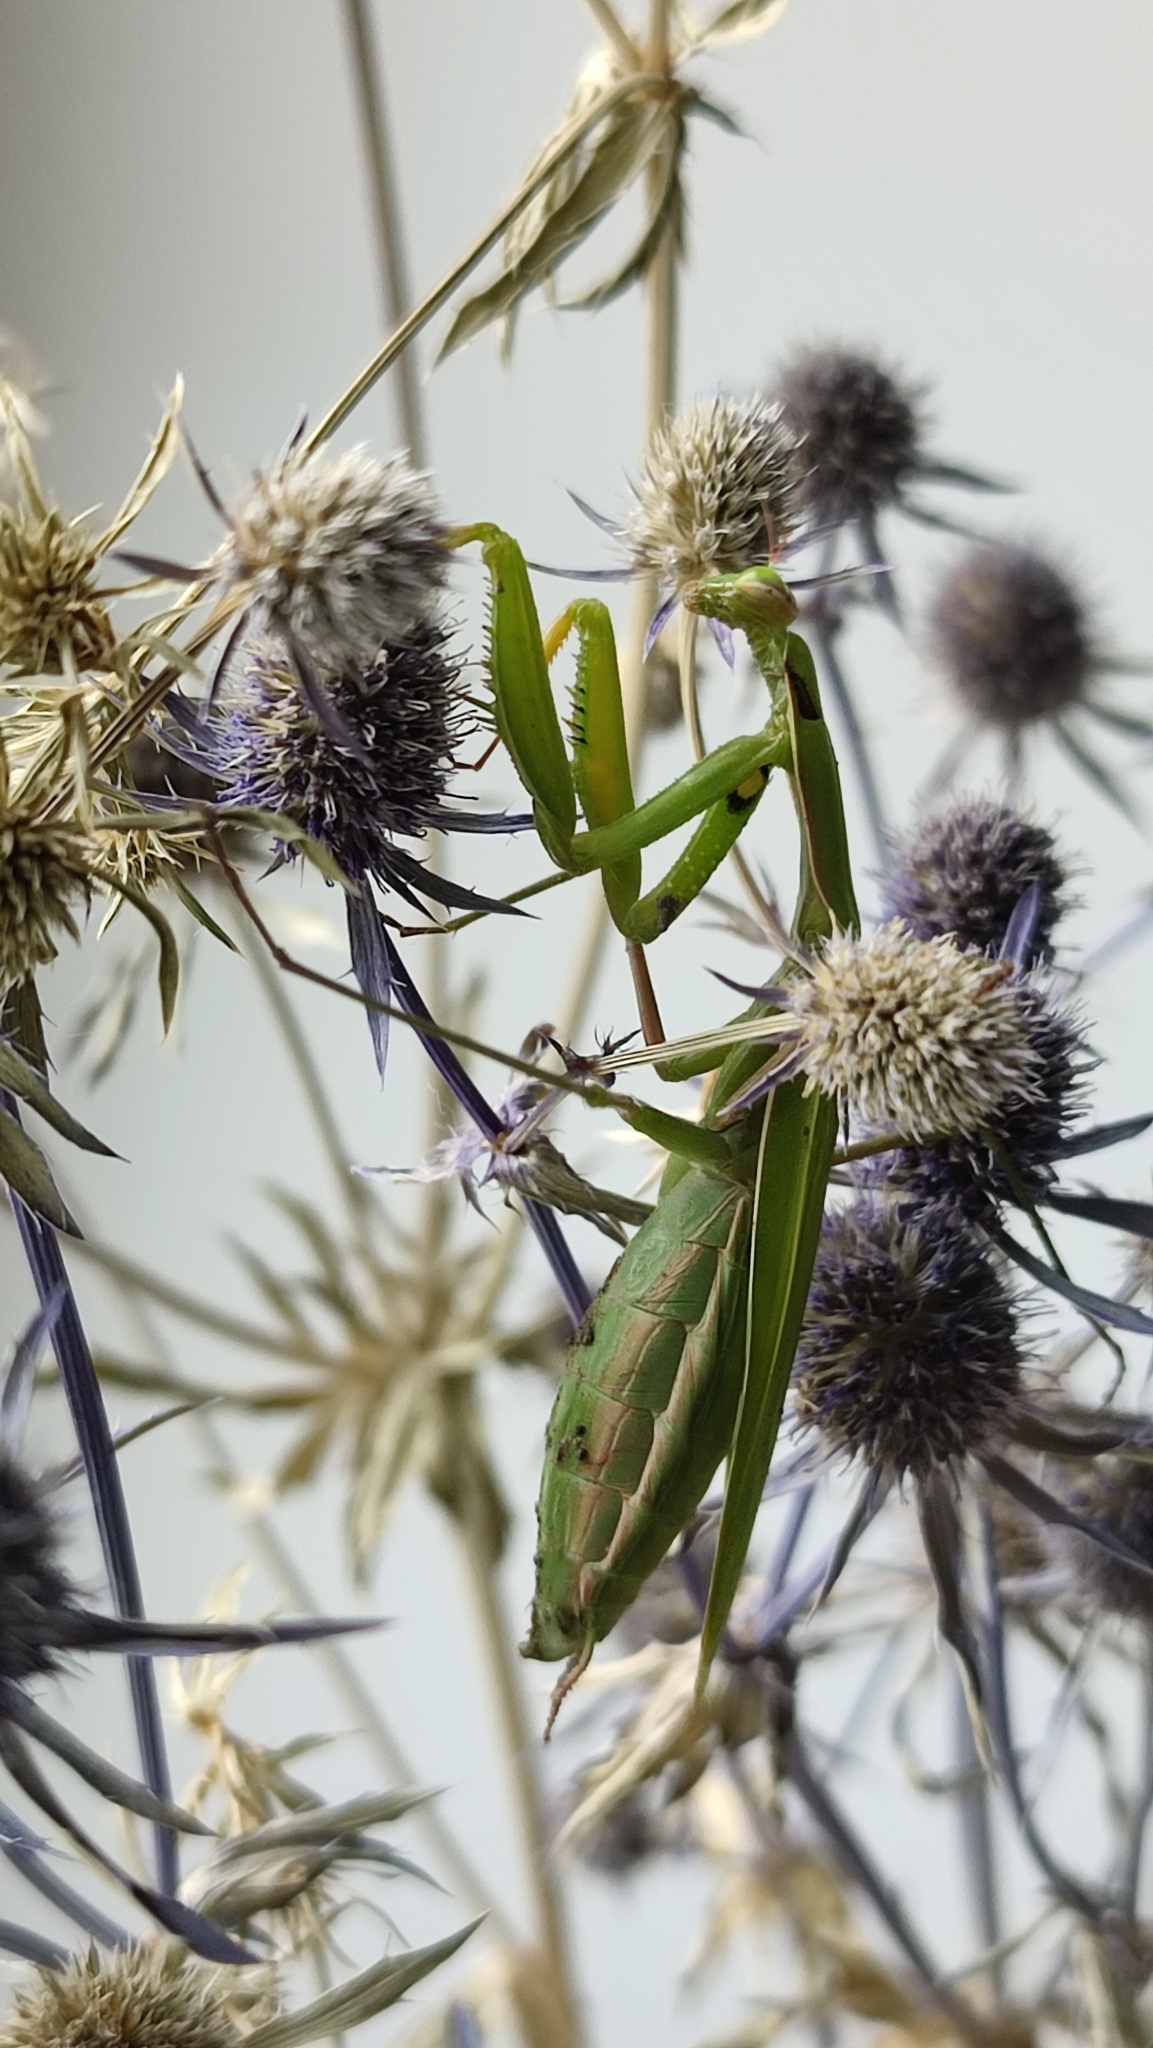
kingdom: Animalia
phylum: Arthropoda
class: Insecta
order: Mantodea
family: Mantidae
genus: Mantis
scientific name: Mantis religiosa
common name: Praying mantis
